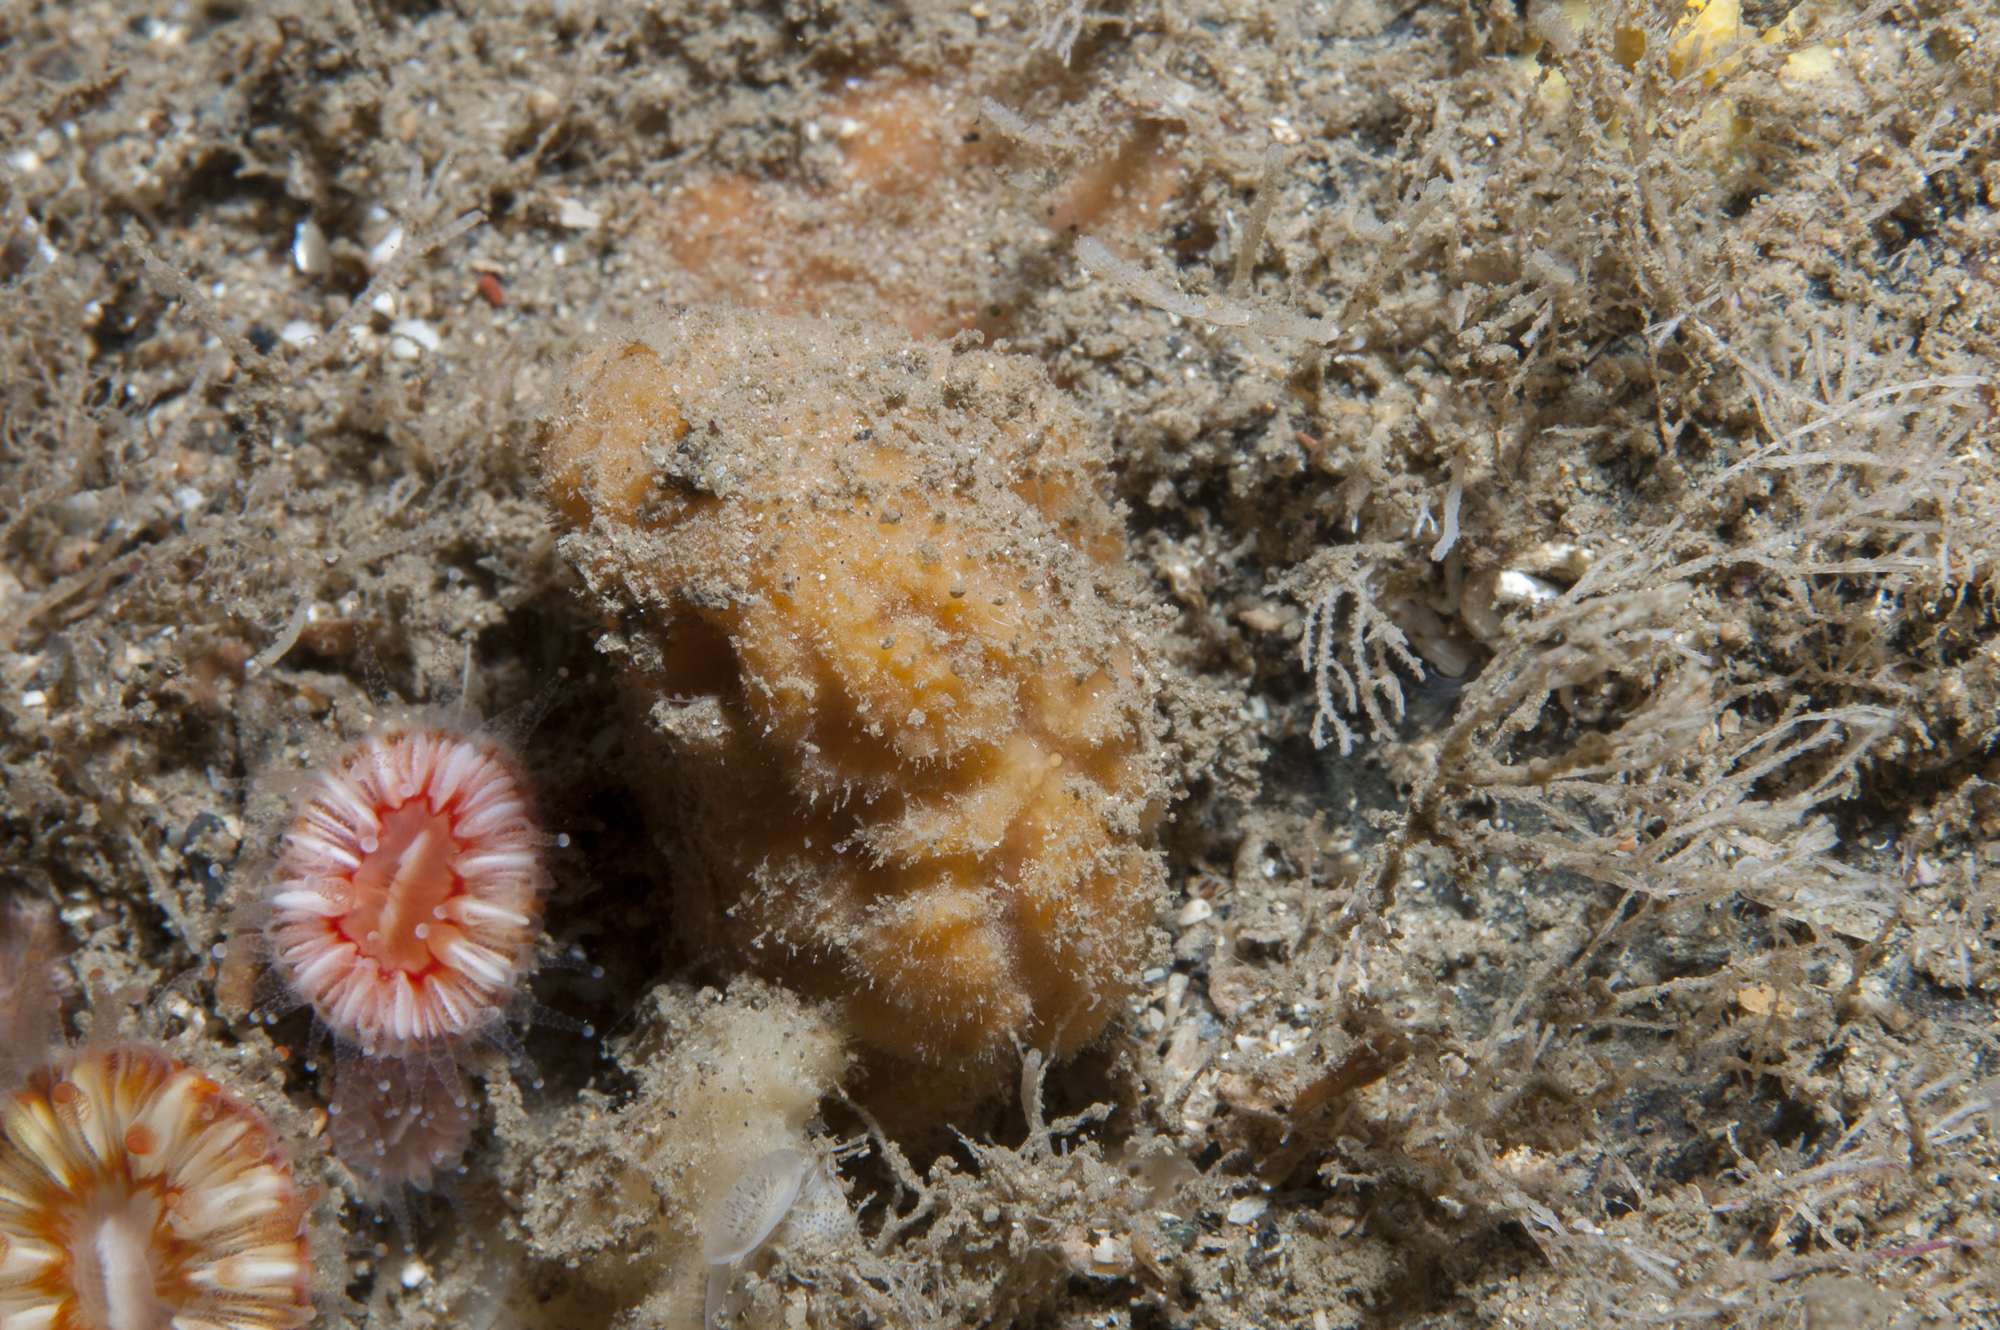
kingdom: Animalia
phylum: Porifera
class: Demospongiae
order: Axinellida
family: Axinellidae
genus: Axinella
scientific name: Axinella parva
